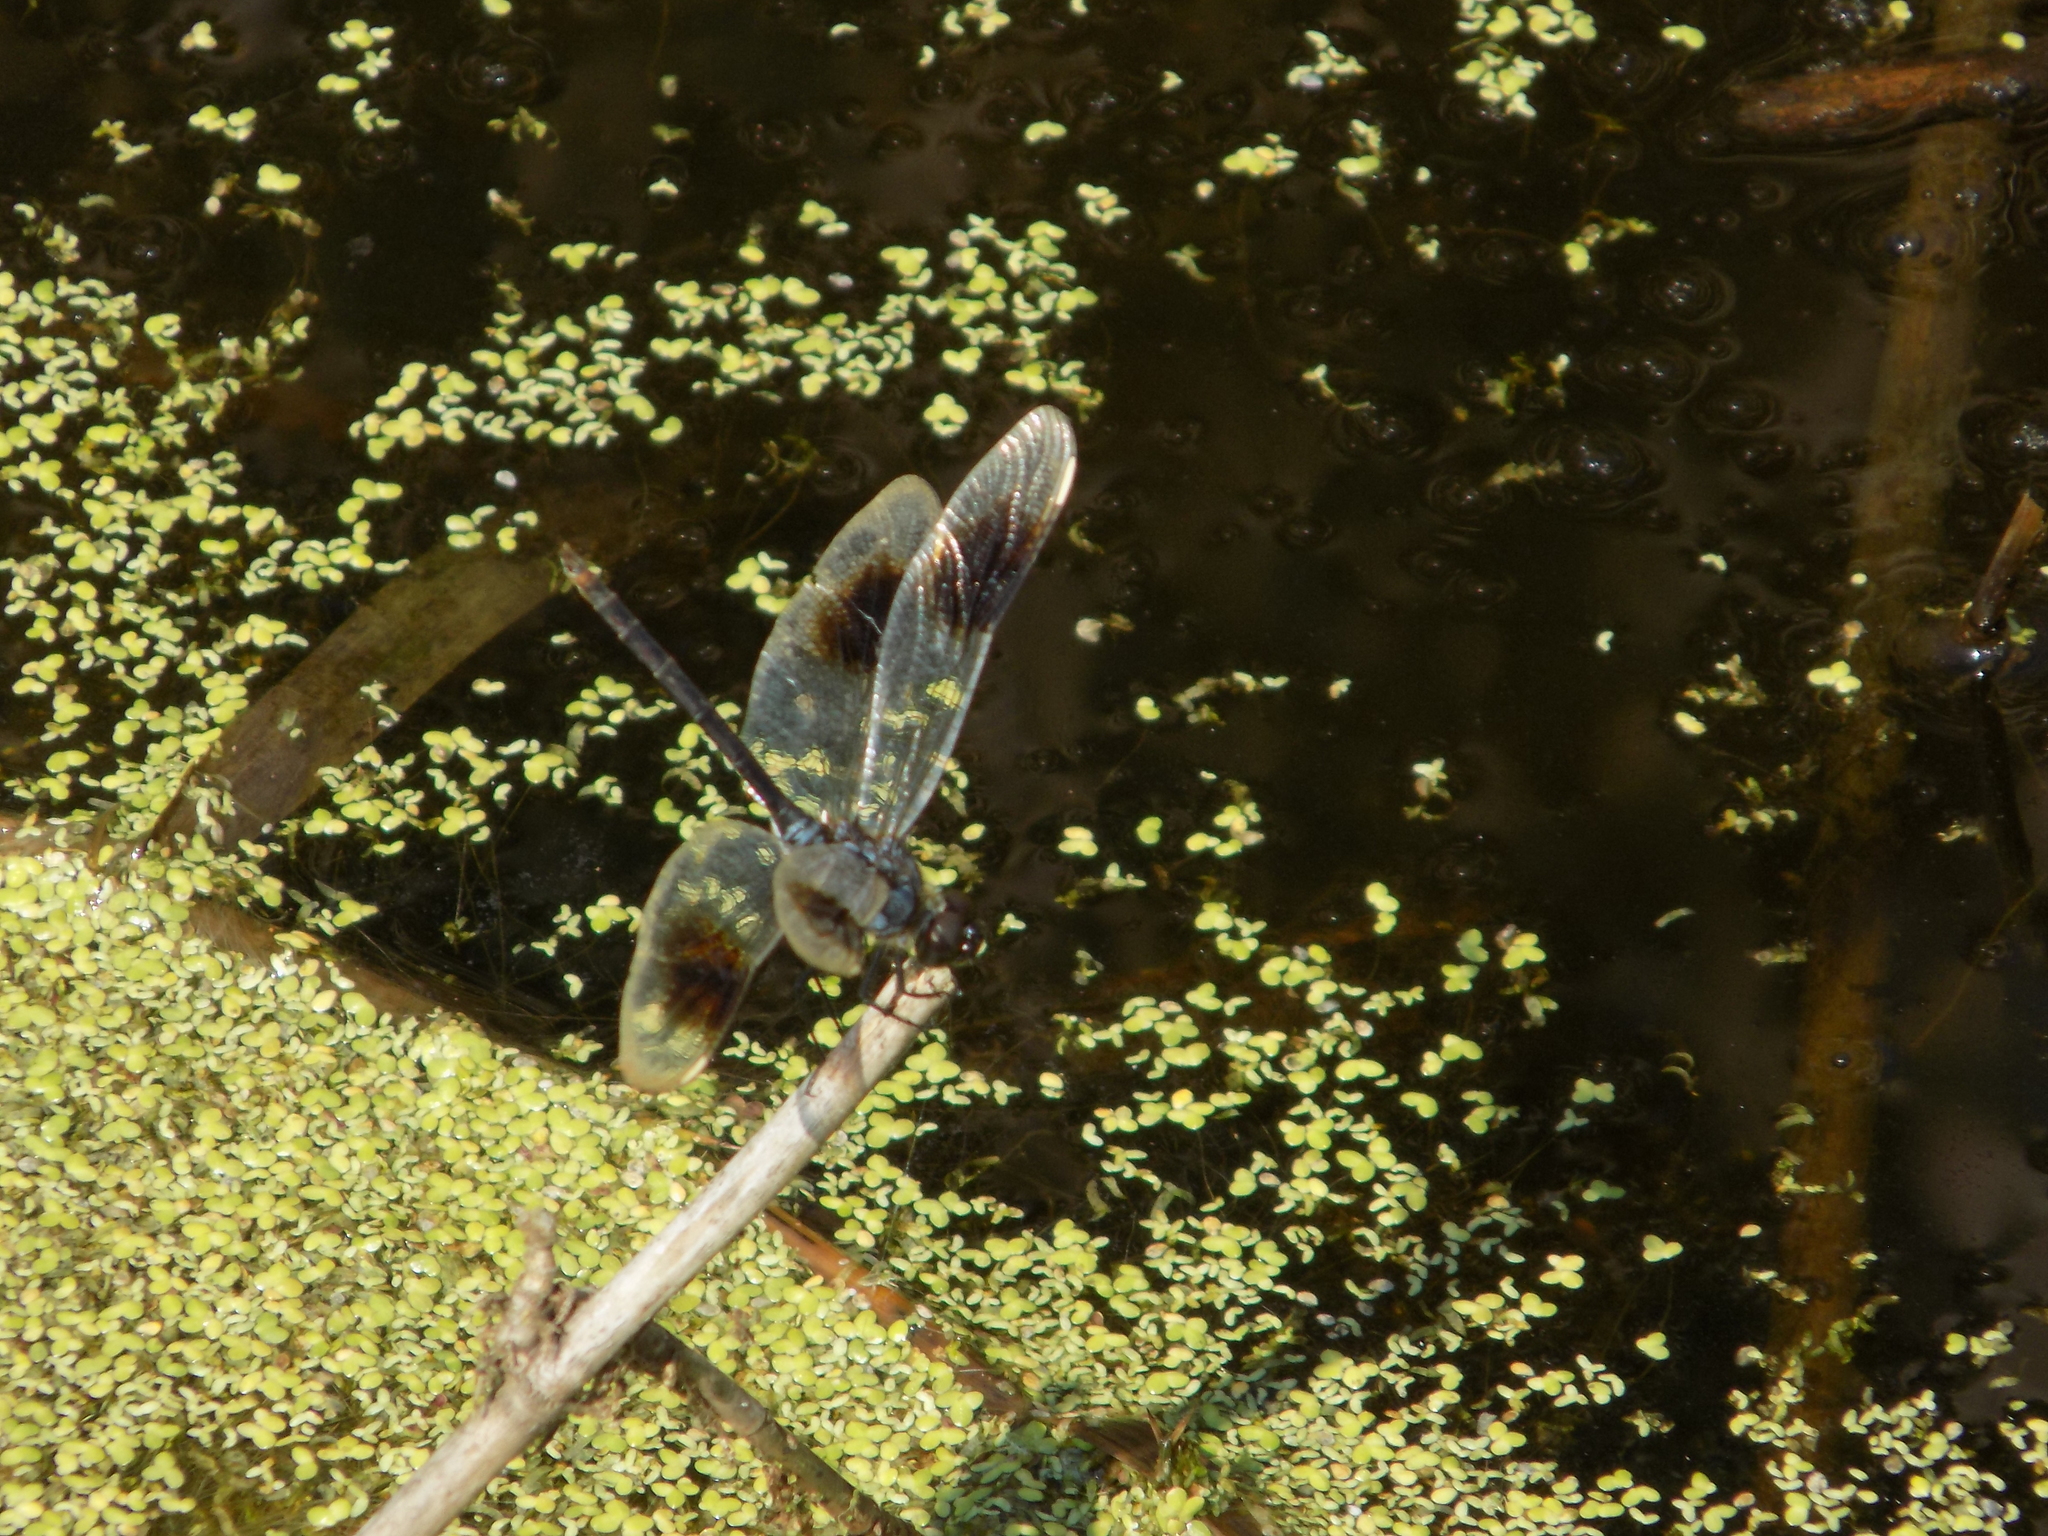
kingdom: Animalia
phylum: Arthropoda
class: Insecta
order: Odonata
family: Libellulidae
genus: Brachymesia
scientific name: Brachymesia gravida
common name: Four-spotted pennant
